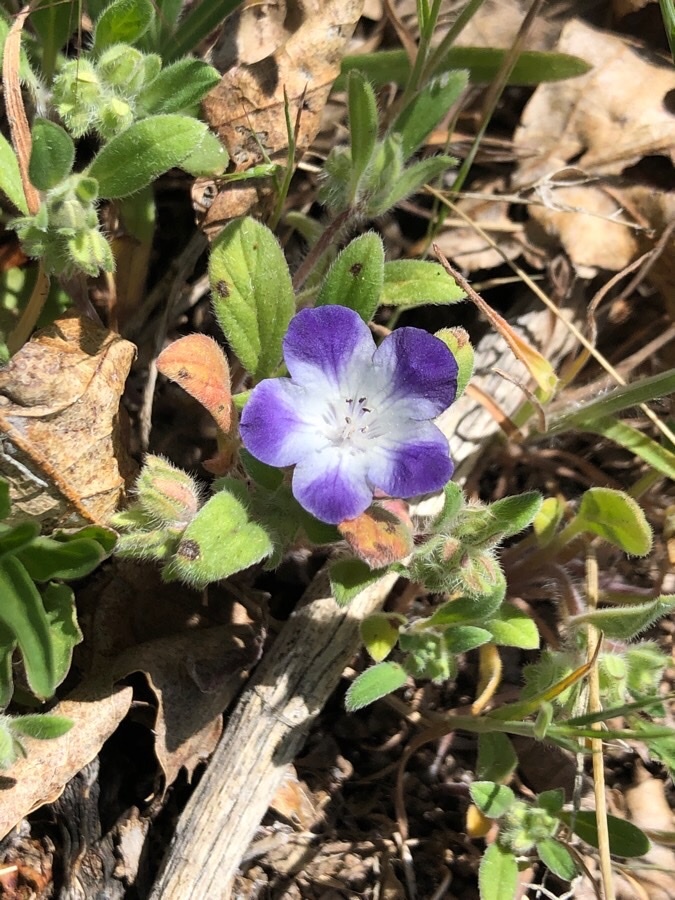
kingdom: Plantae
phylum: Tracheophyta
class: Magnoliopsida
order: Boraginales
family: Hydrophyllaceae
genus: Phacelia
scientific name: Phacelia davidsonii
